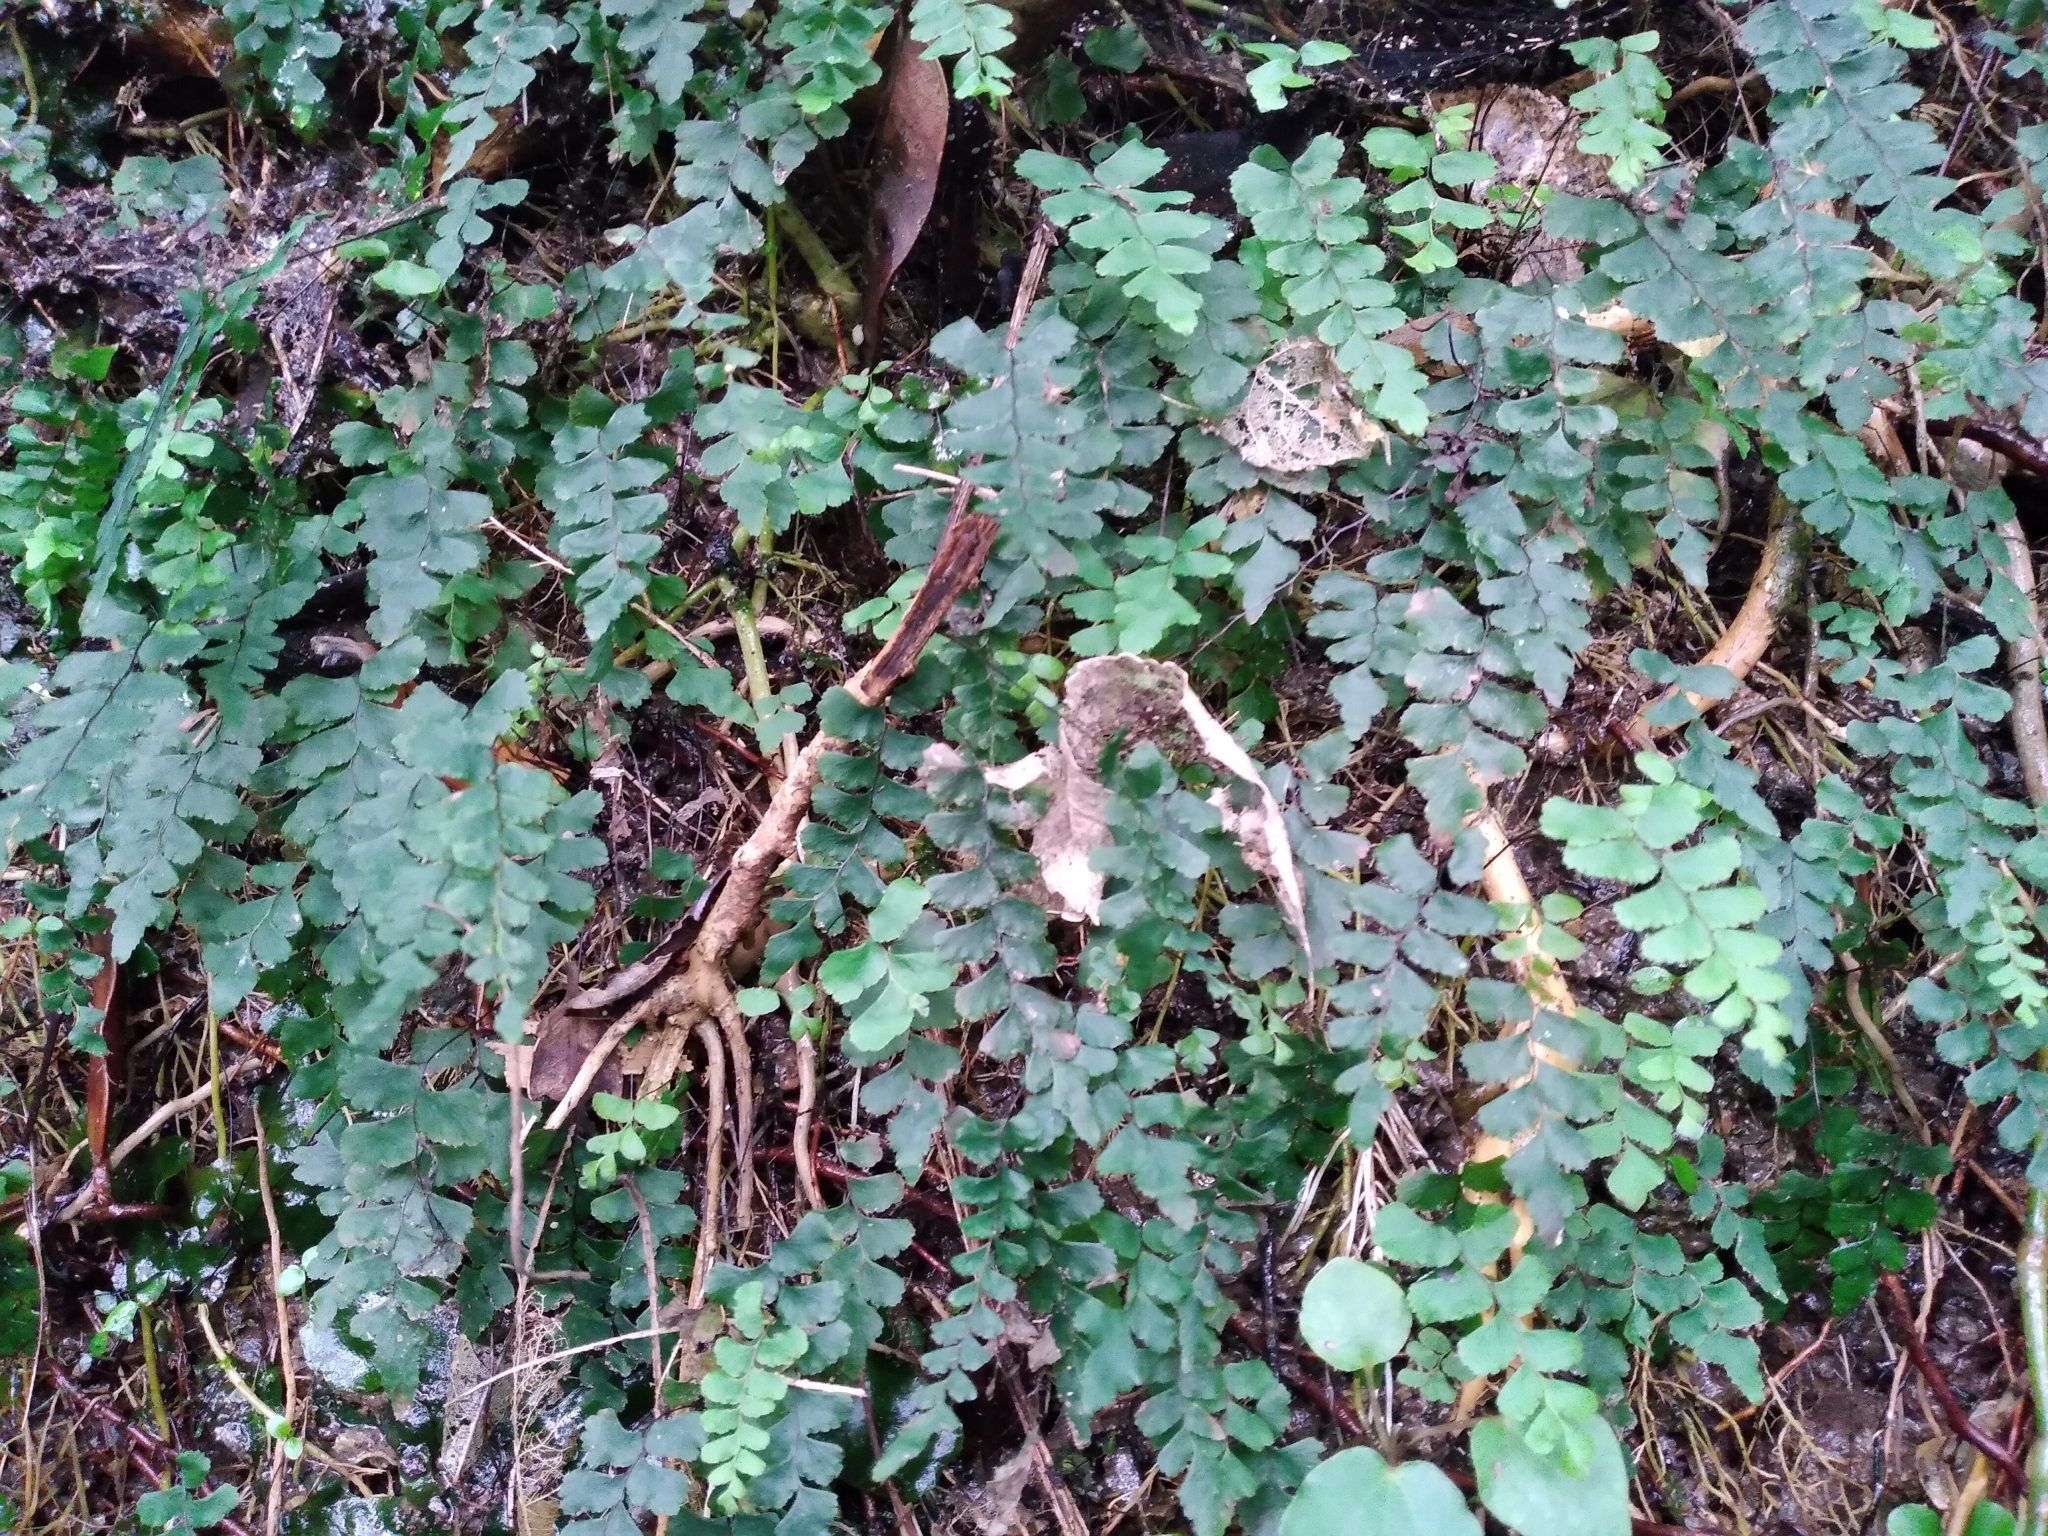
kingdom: Plantae
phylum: Tracheophyta
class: Polypodiopsida
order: Polypodiales
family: Pteridaceae
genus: Adiantum
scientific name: Adiantum diaphanum
